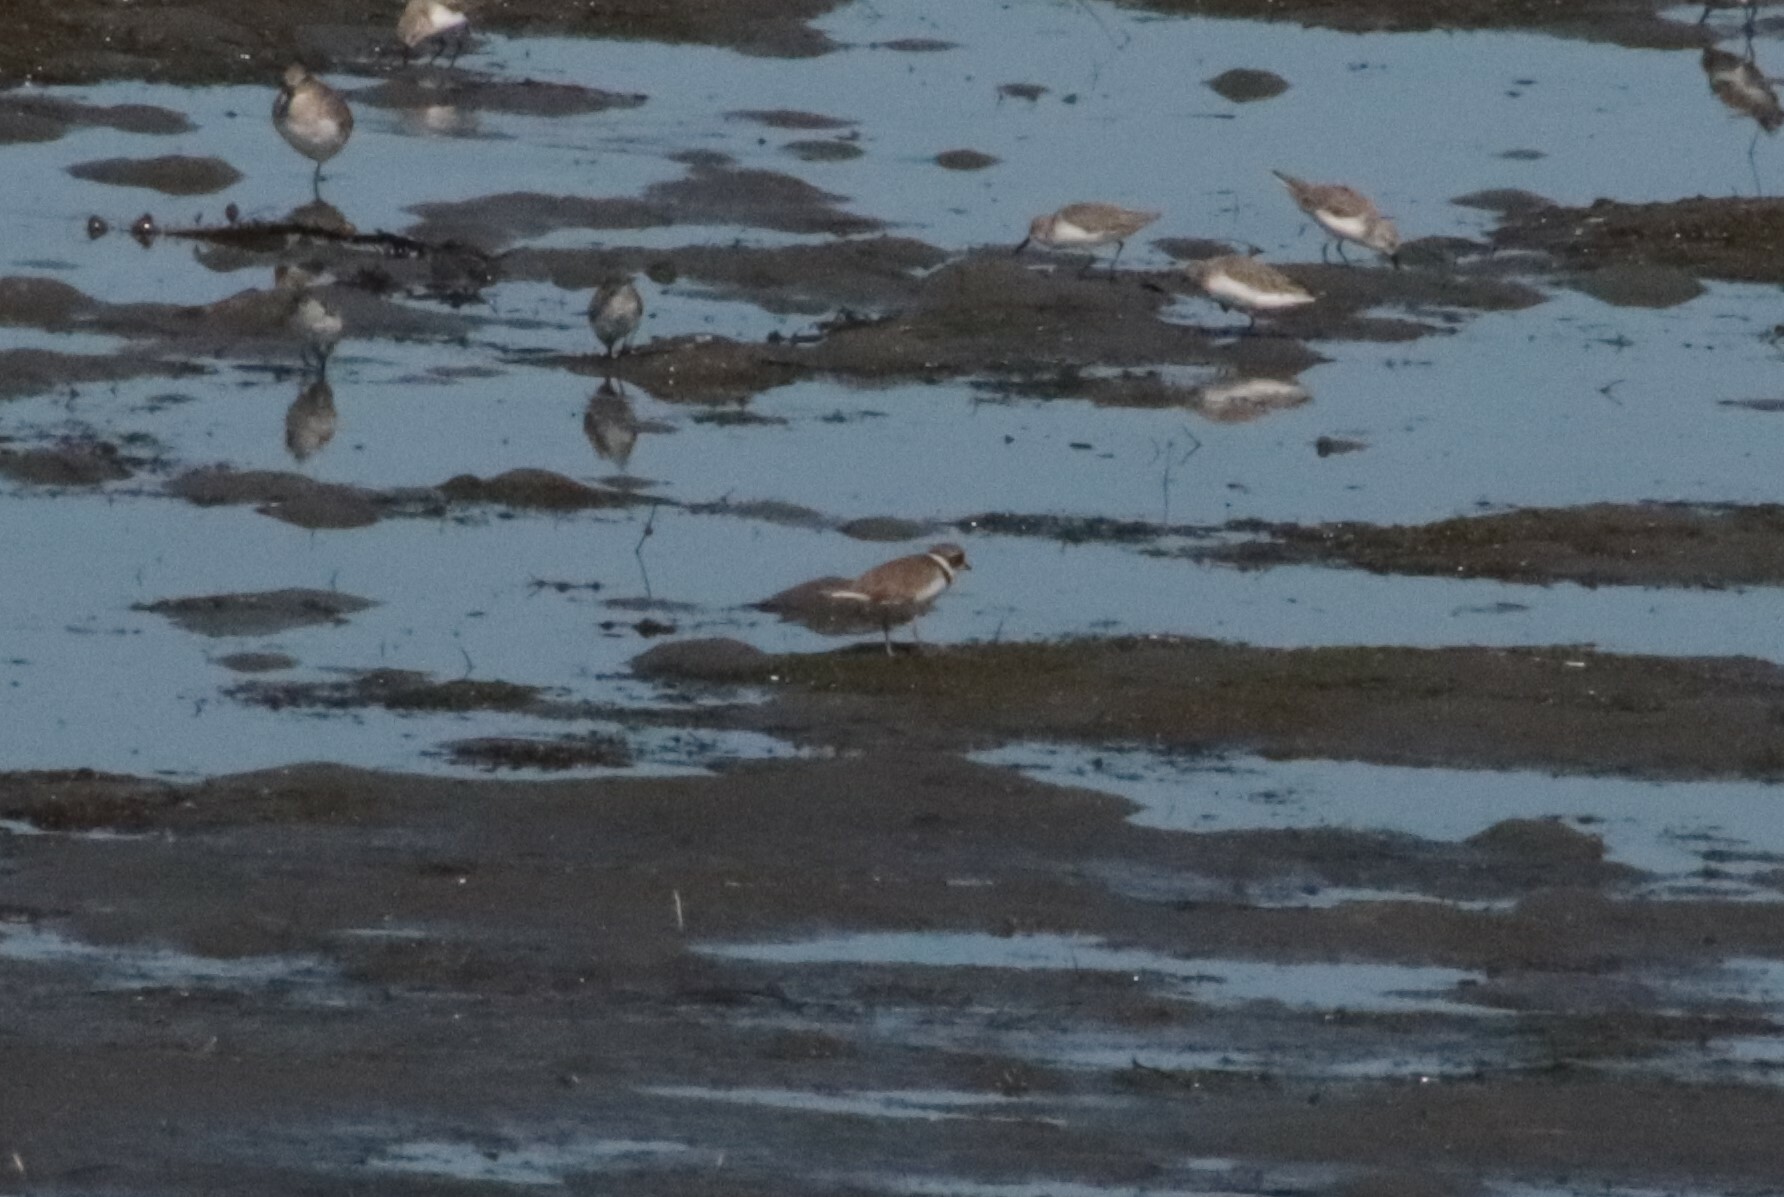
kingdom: Animalia
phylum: Chordata
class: Aves
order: Charadriiformes
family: Charadriidae
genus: Charadrius
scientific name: Charadrius semipalmatus
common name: Semipalmated plover
